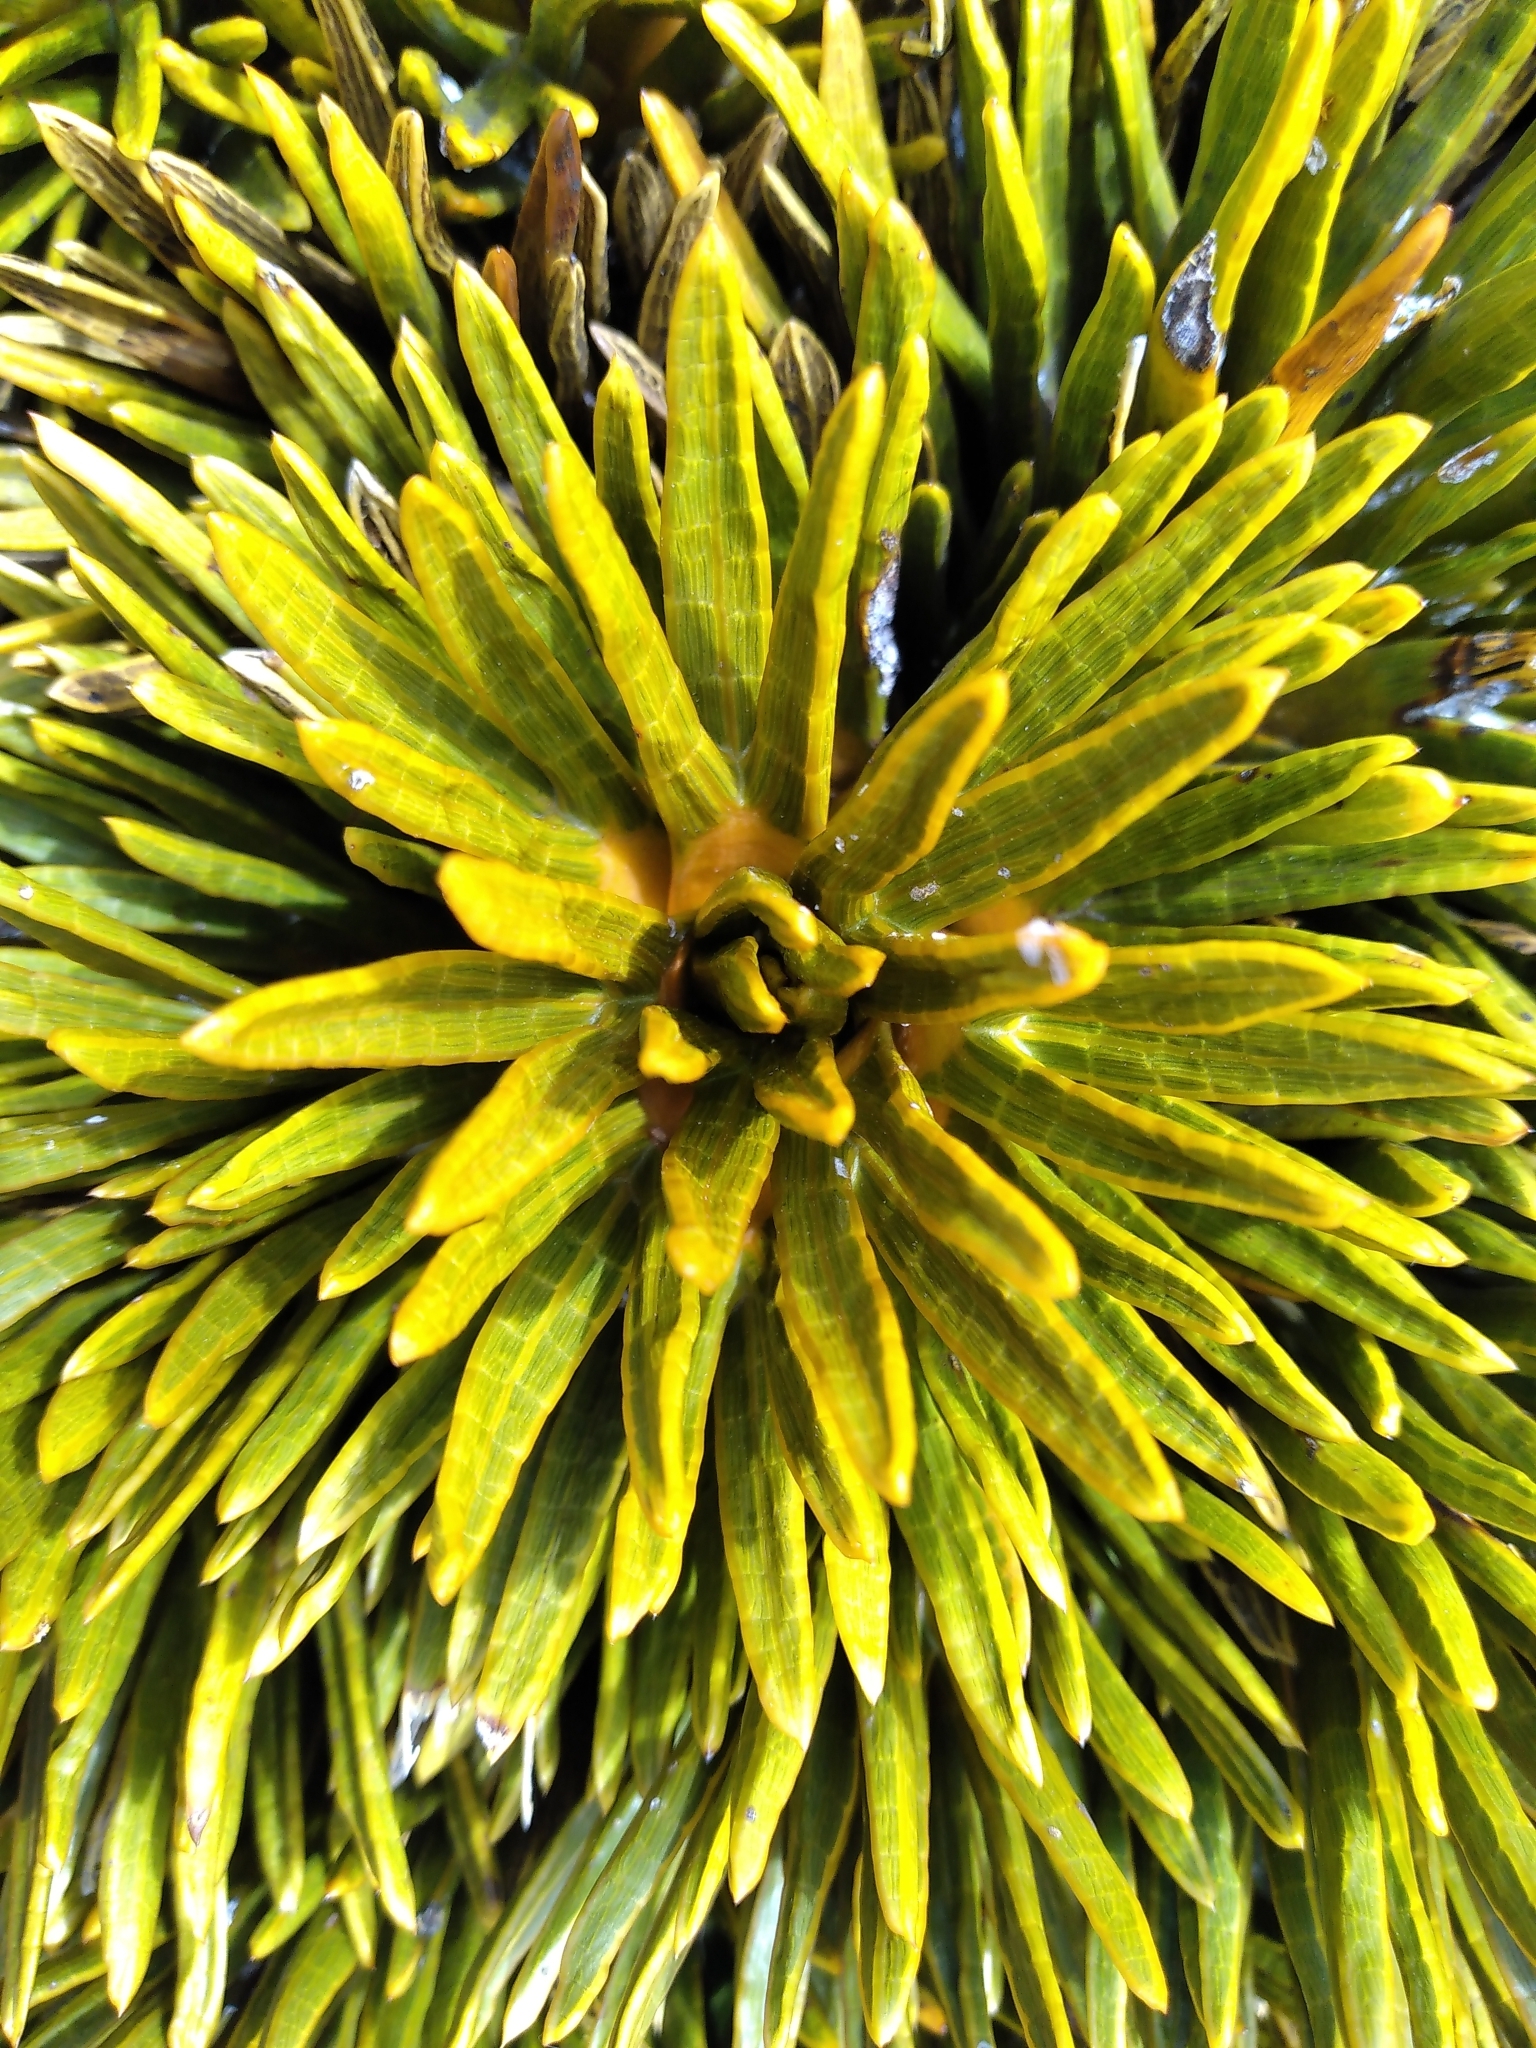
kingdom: Plantae
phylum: Tracheophyta
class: Magnoliopsida
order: Apiales
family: Apiaceae
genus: Aciphylla
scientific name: Aciphylla dobsonii
